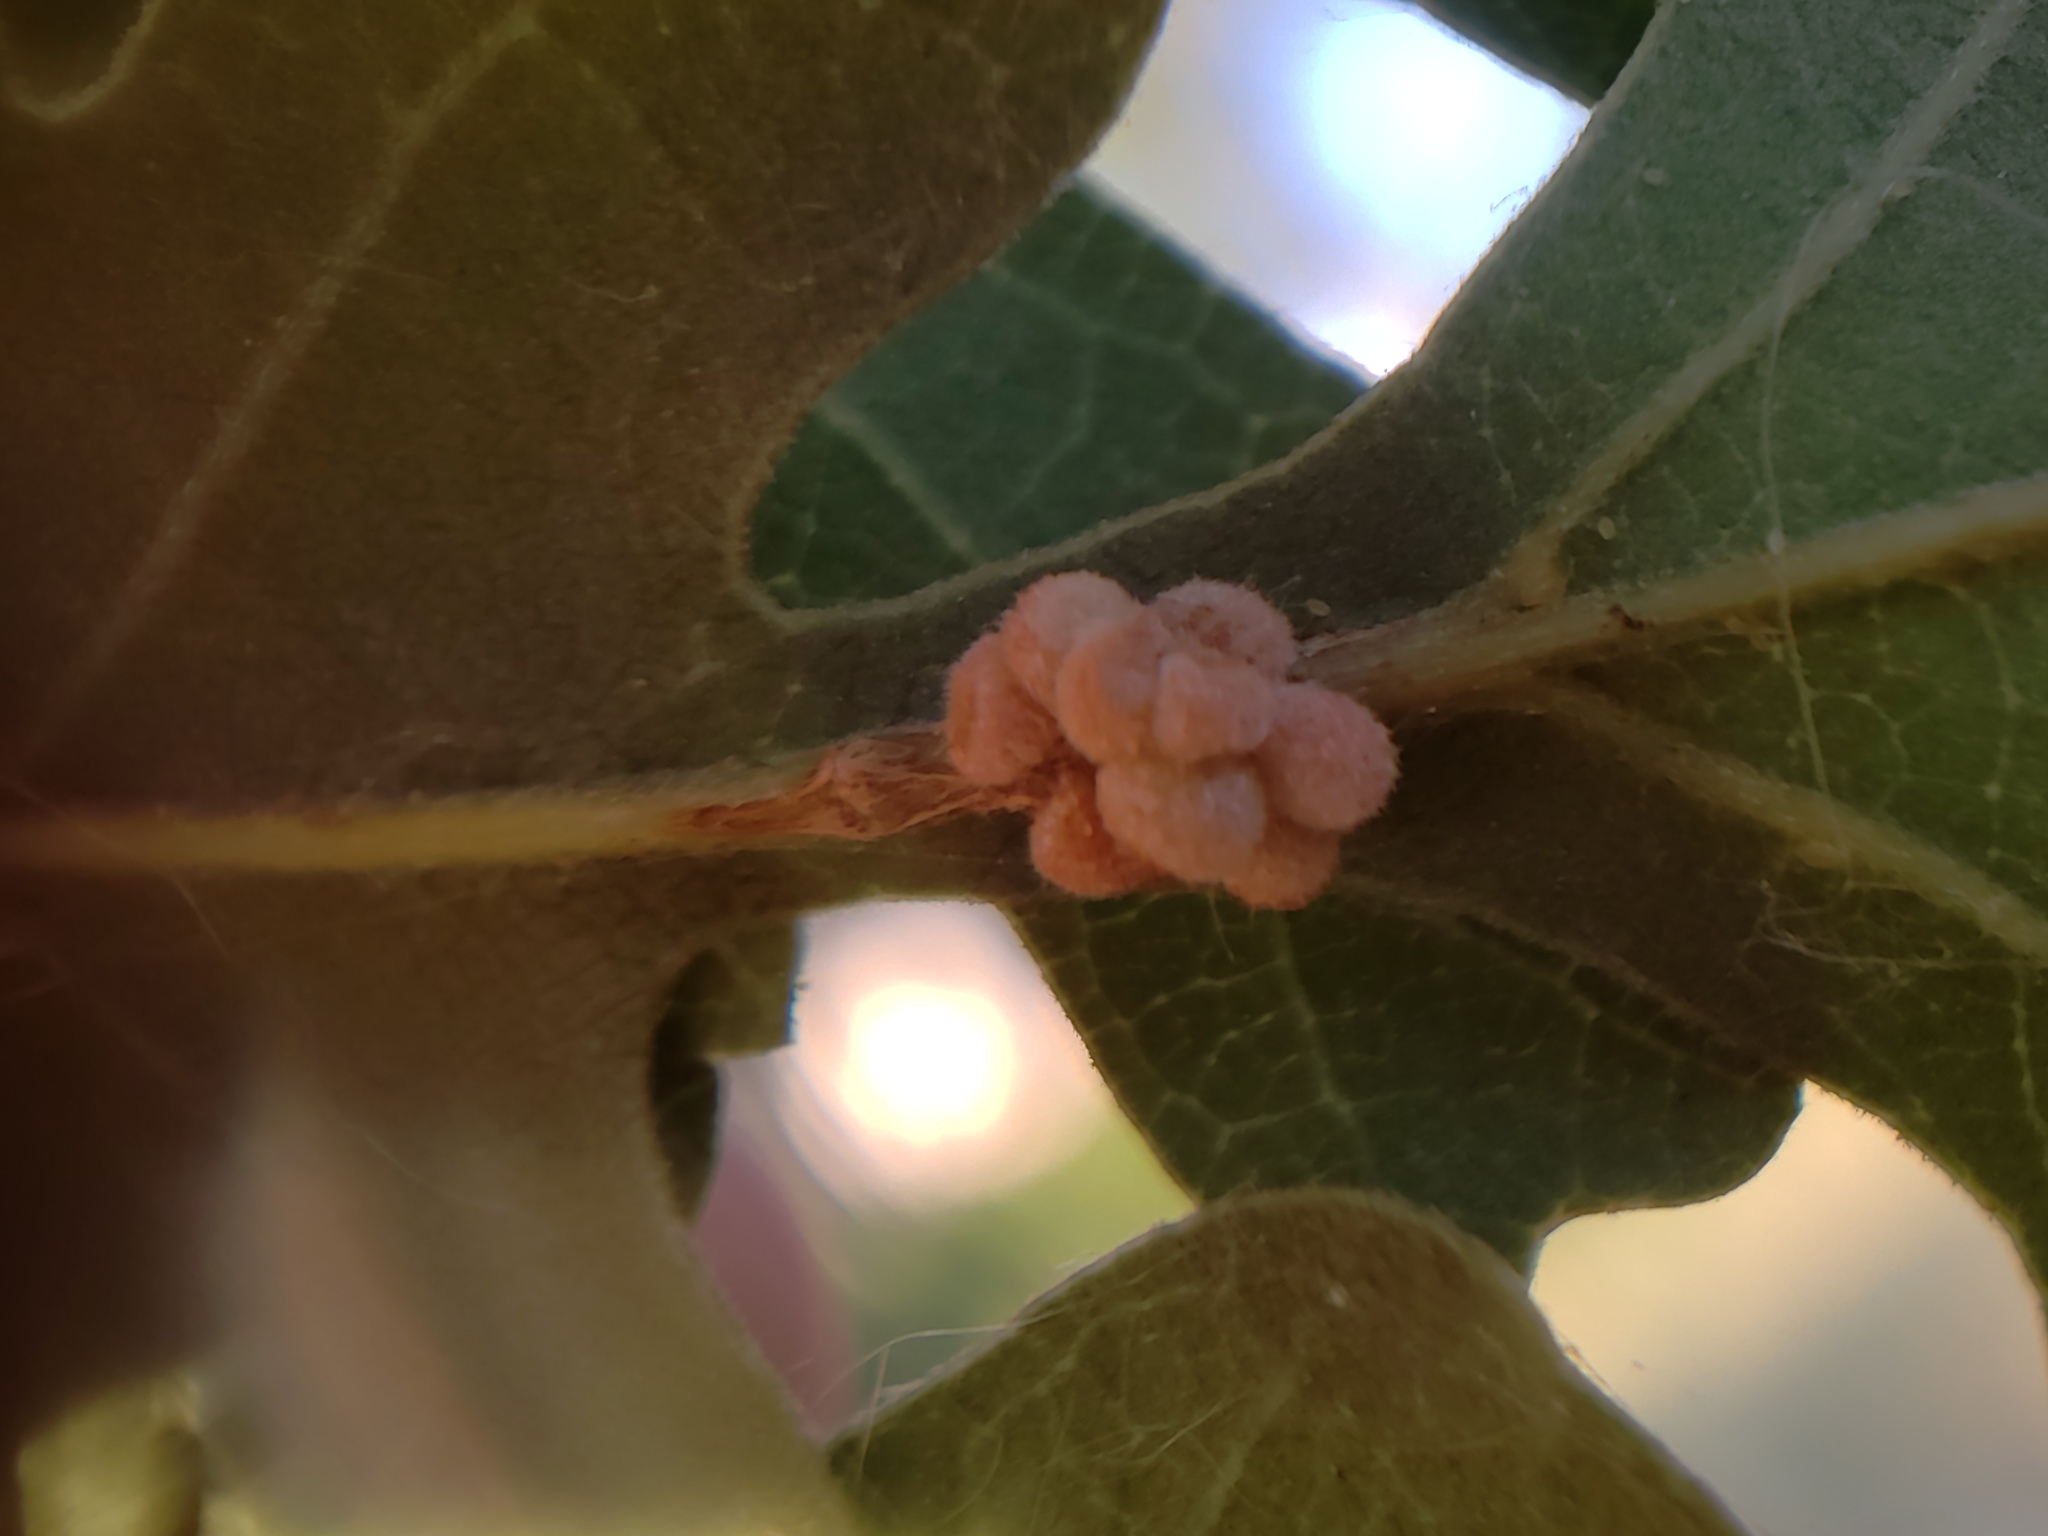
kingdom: Animalia
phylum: Arthropoda
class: Insecta
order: Hymenoptera
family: Cynipidae
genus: Andricus
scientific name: Andricus
